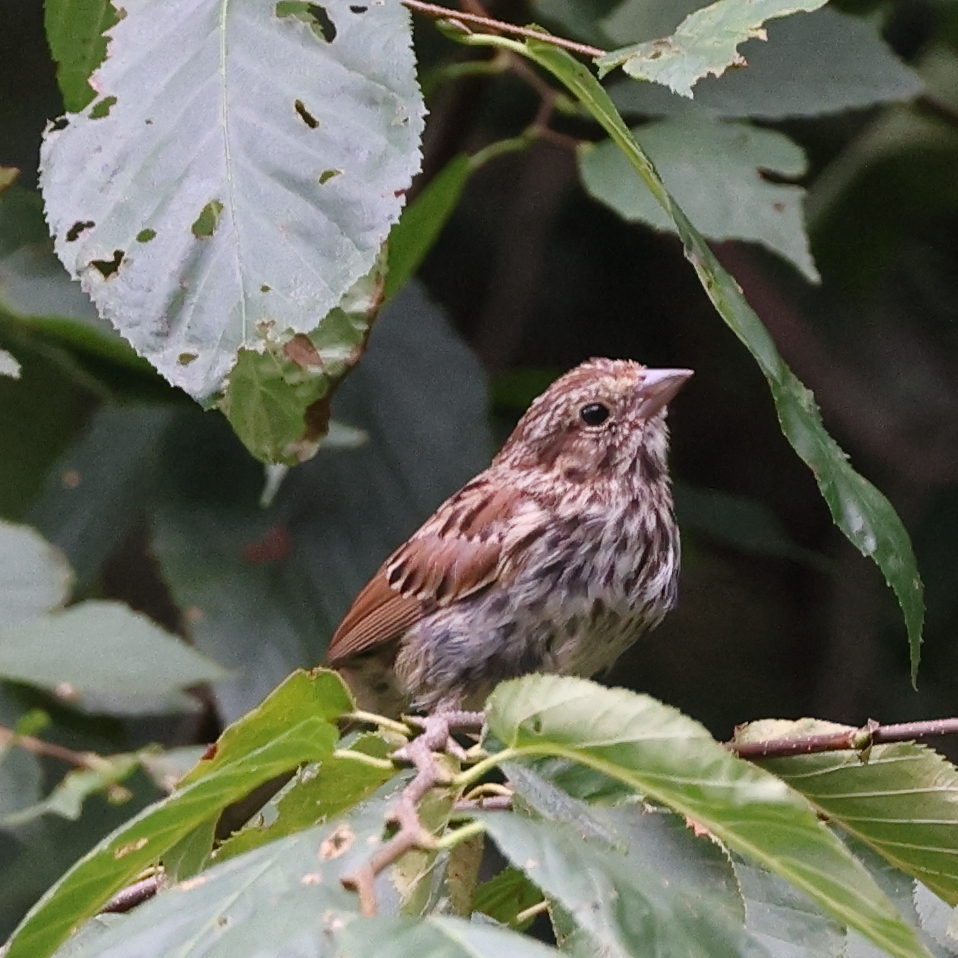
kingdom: Animalia
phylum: Chordata
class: Aves
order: Passeriformes
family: Passerellidae
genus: Melospiza
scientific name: Melospiza melodia
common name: Song sparrow
